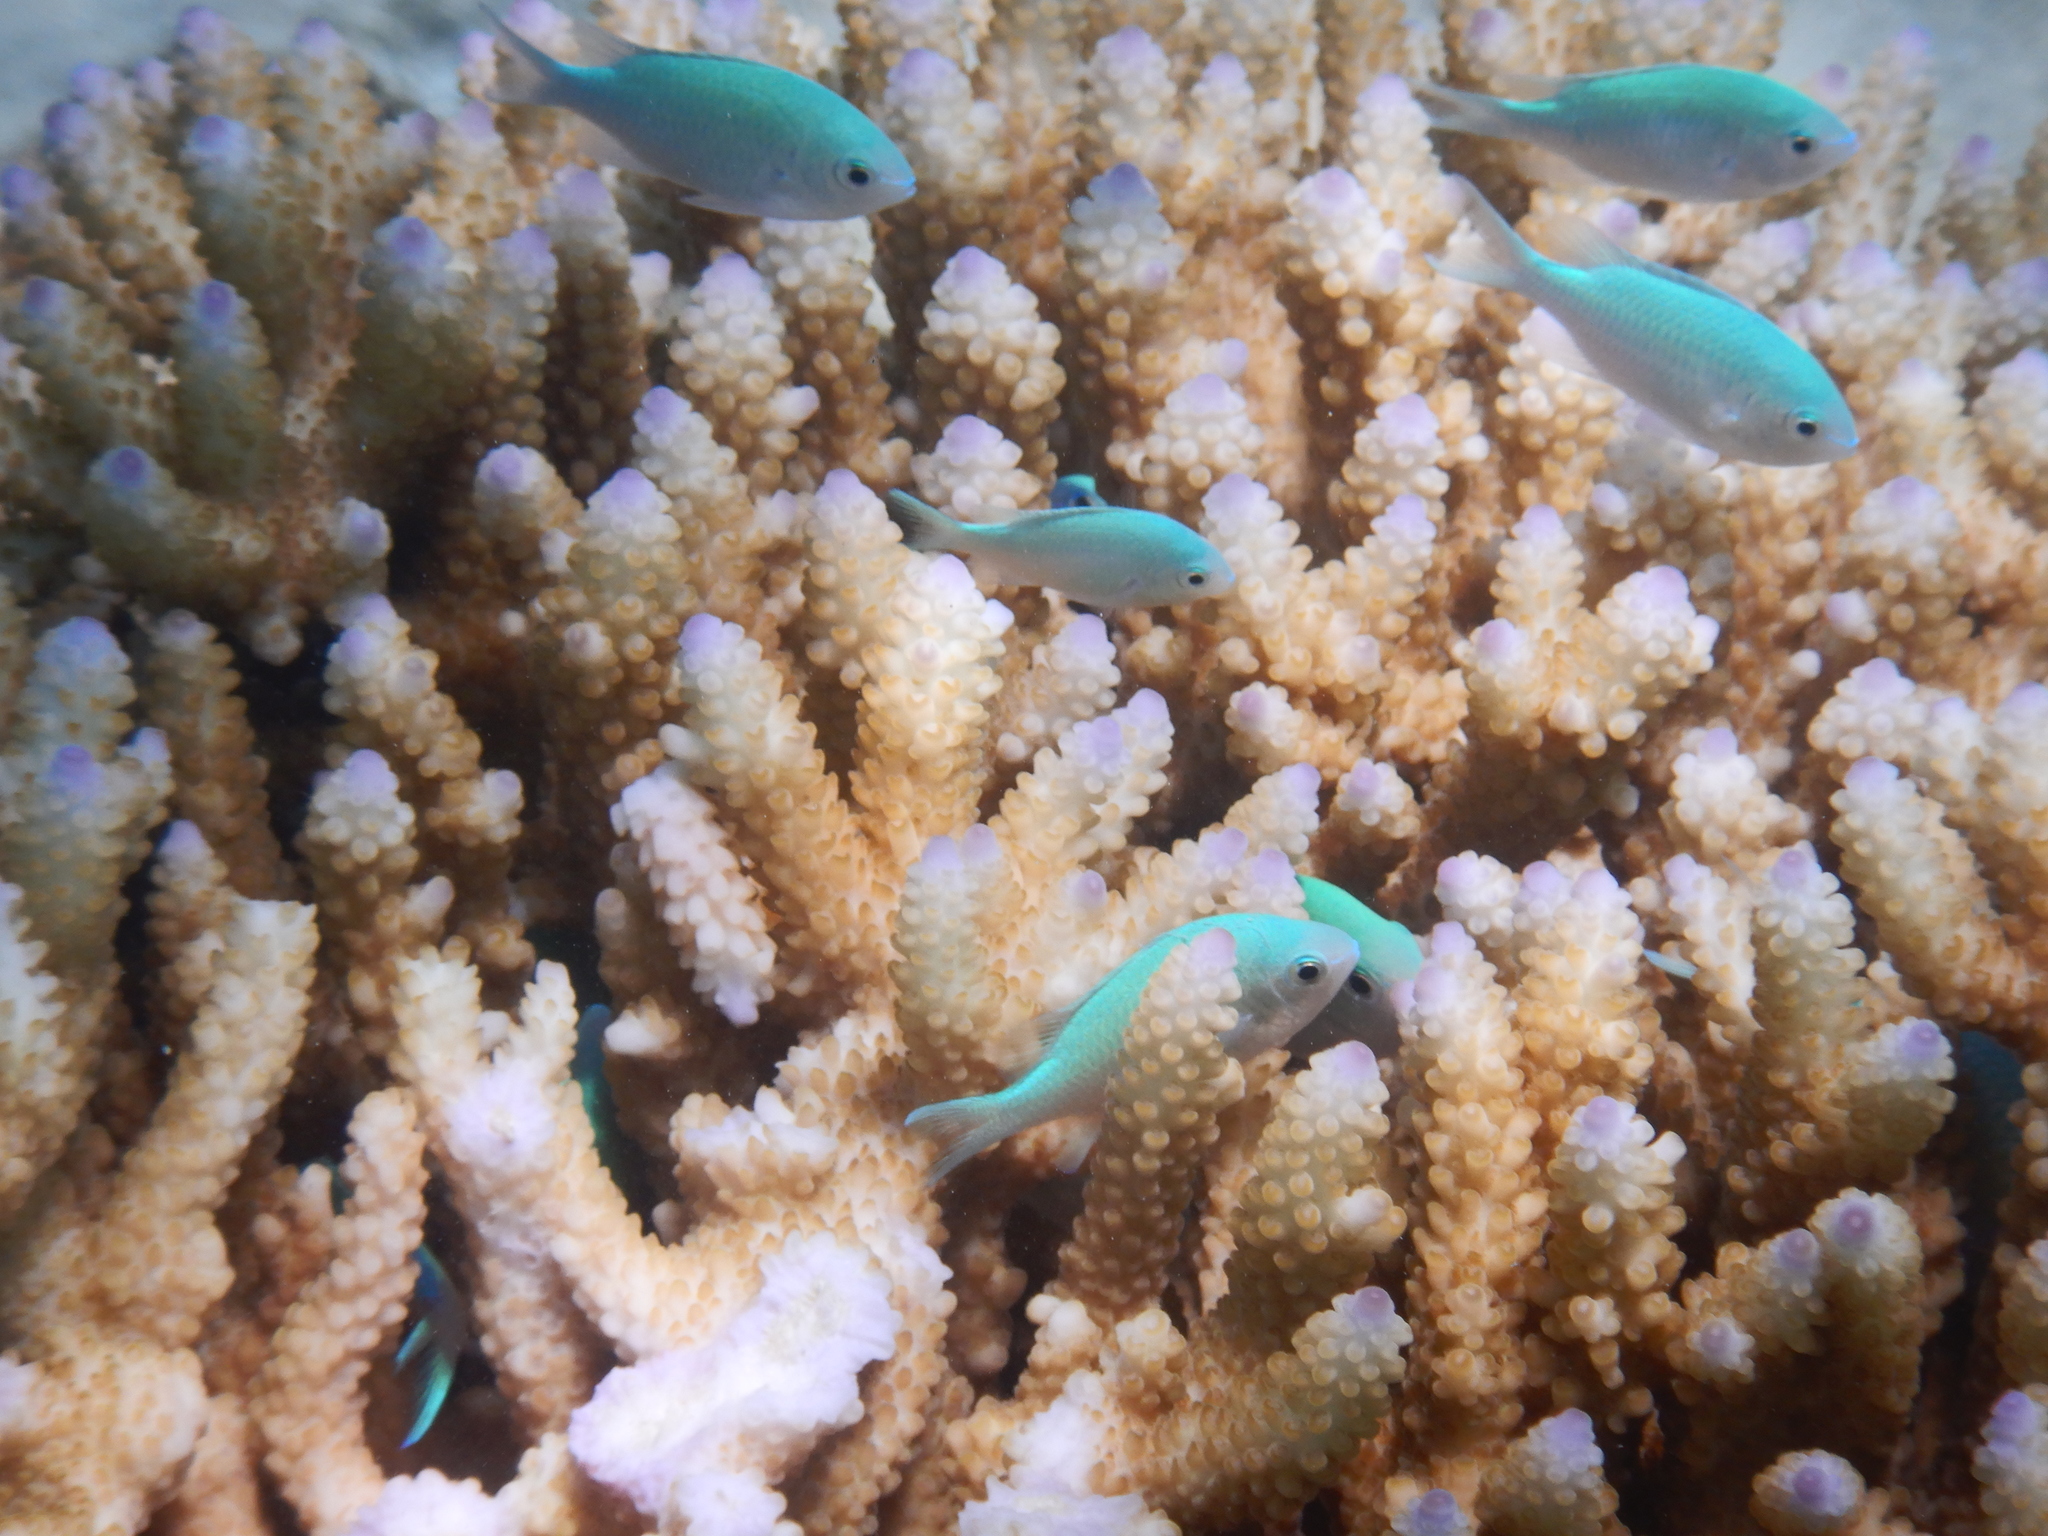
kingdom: Animalia
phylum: Chordata
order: Perciformes
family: Pomacentridae
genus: Chromis
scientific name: Chromis viridis
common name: Blue-green chromis
